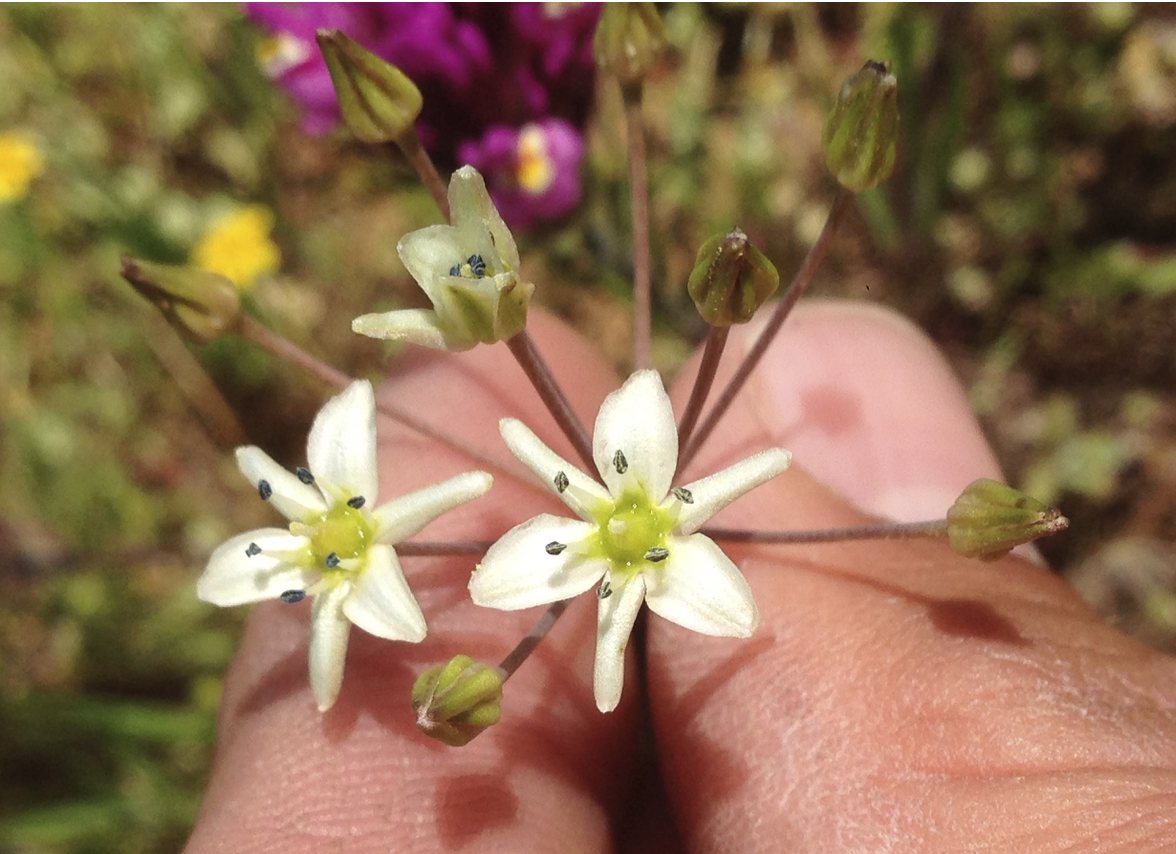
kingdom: Plantae
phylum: Tracheophyta
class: Liliopsida
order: Asparagales
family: Asparagaceae
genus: Muilla
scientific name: Muilla maritima
